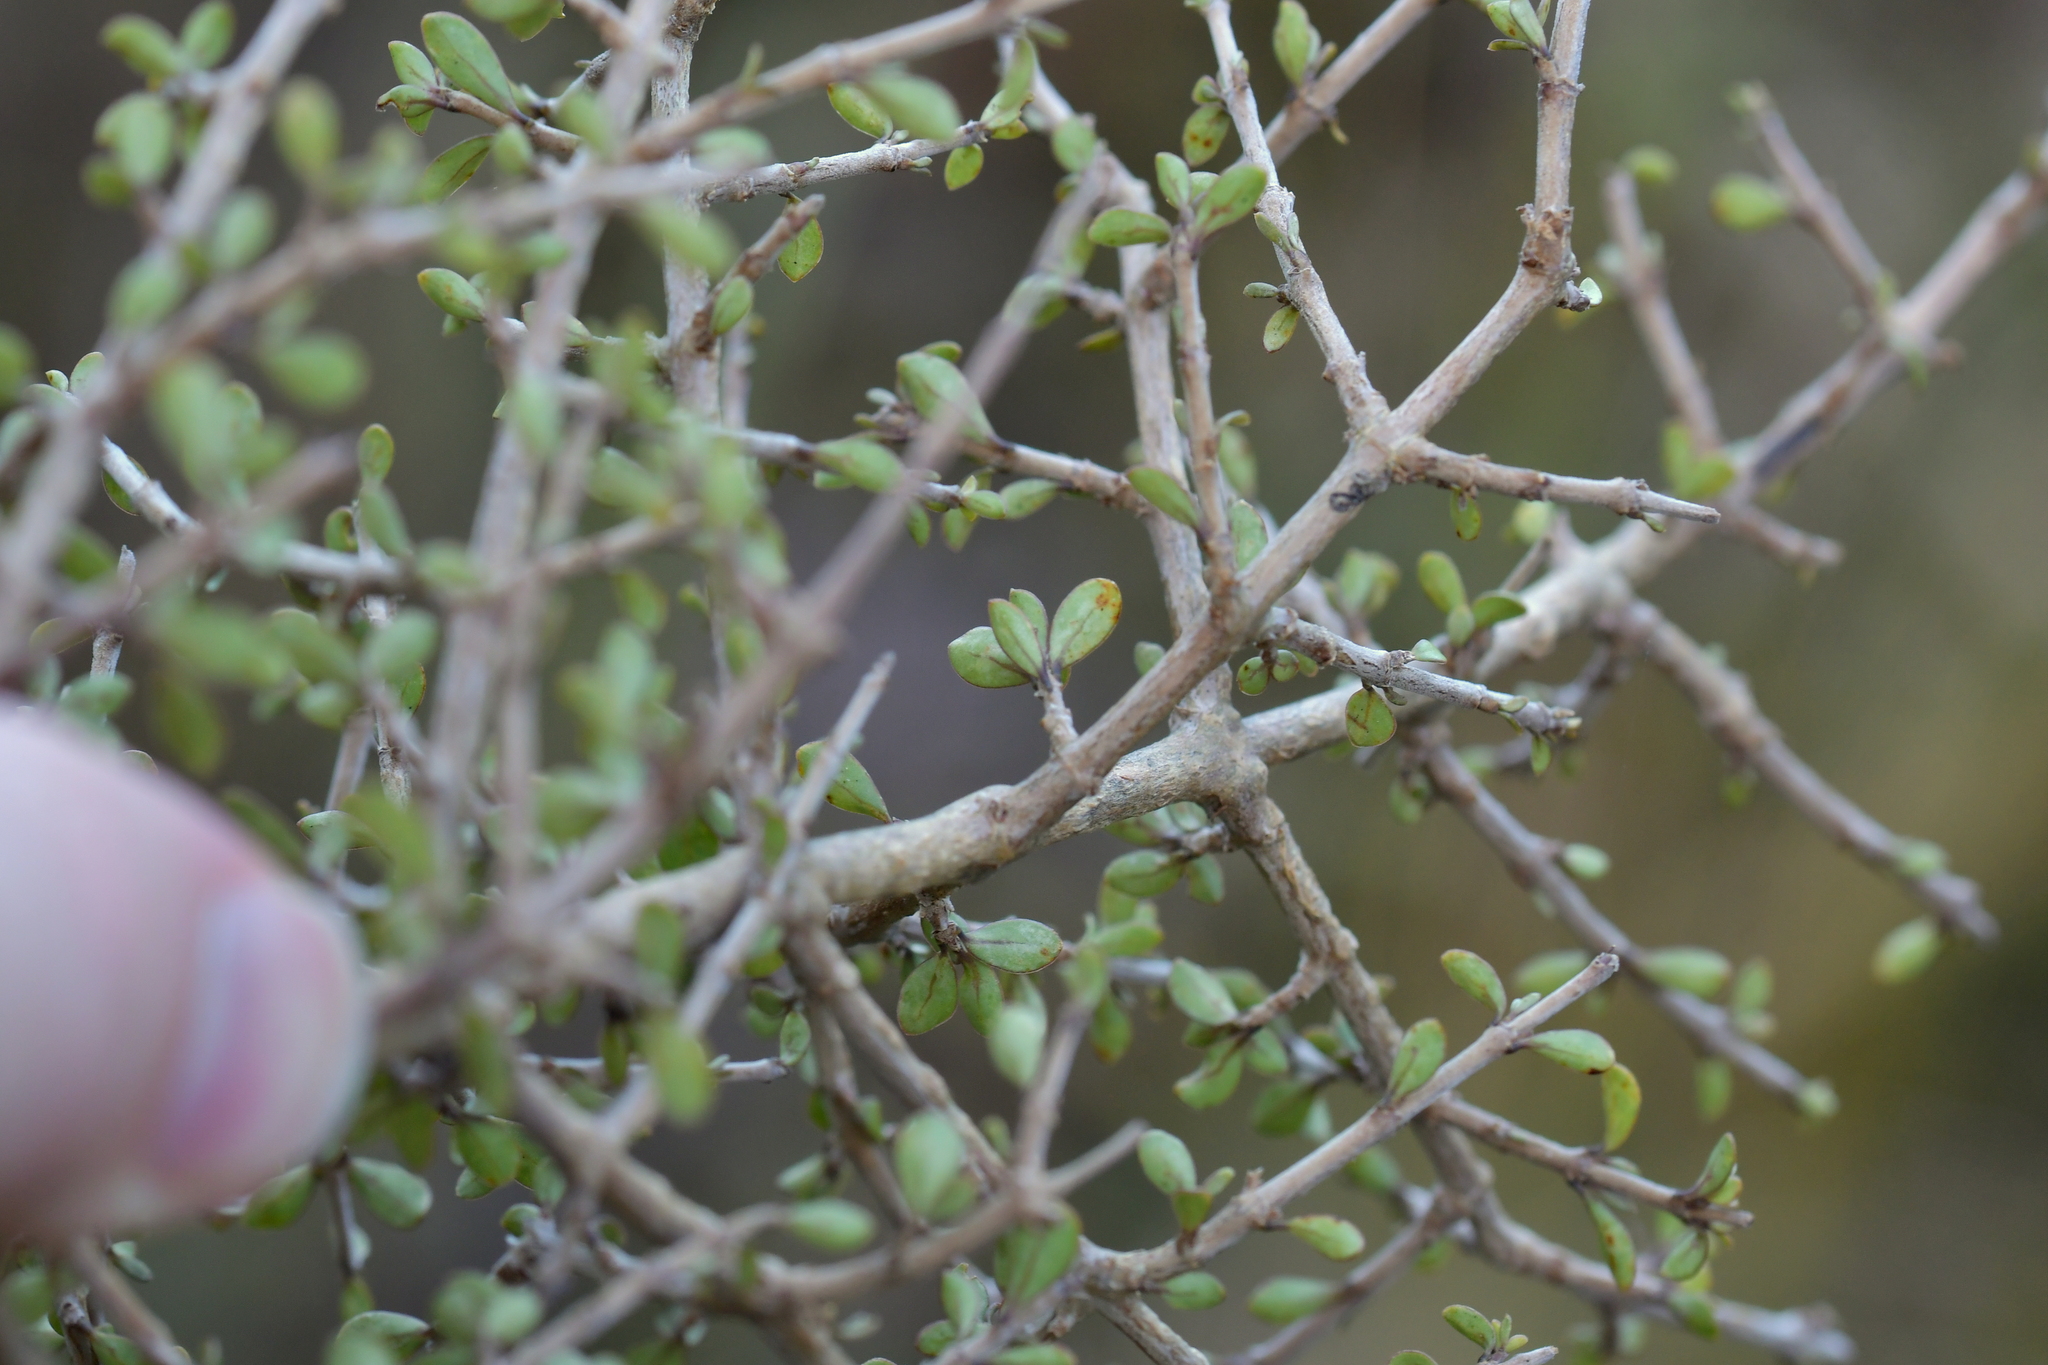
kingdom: Plantae
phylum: Tracheophyta
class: Magnoliopsida
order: Gentianales
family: Rubiaceae
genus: Coprosma
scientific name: Coprosma dumosa
